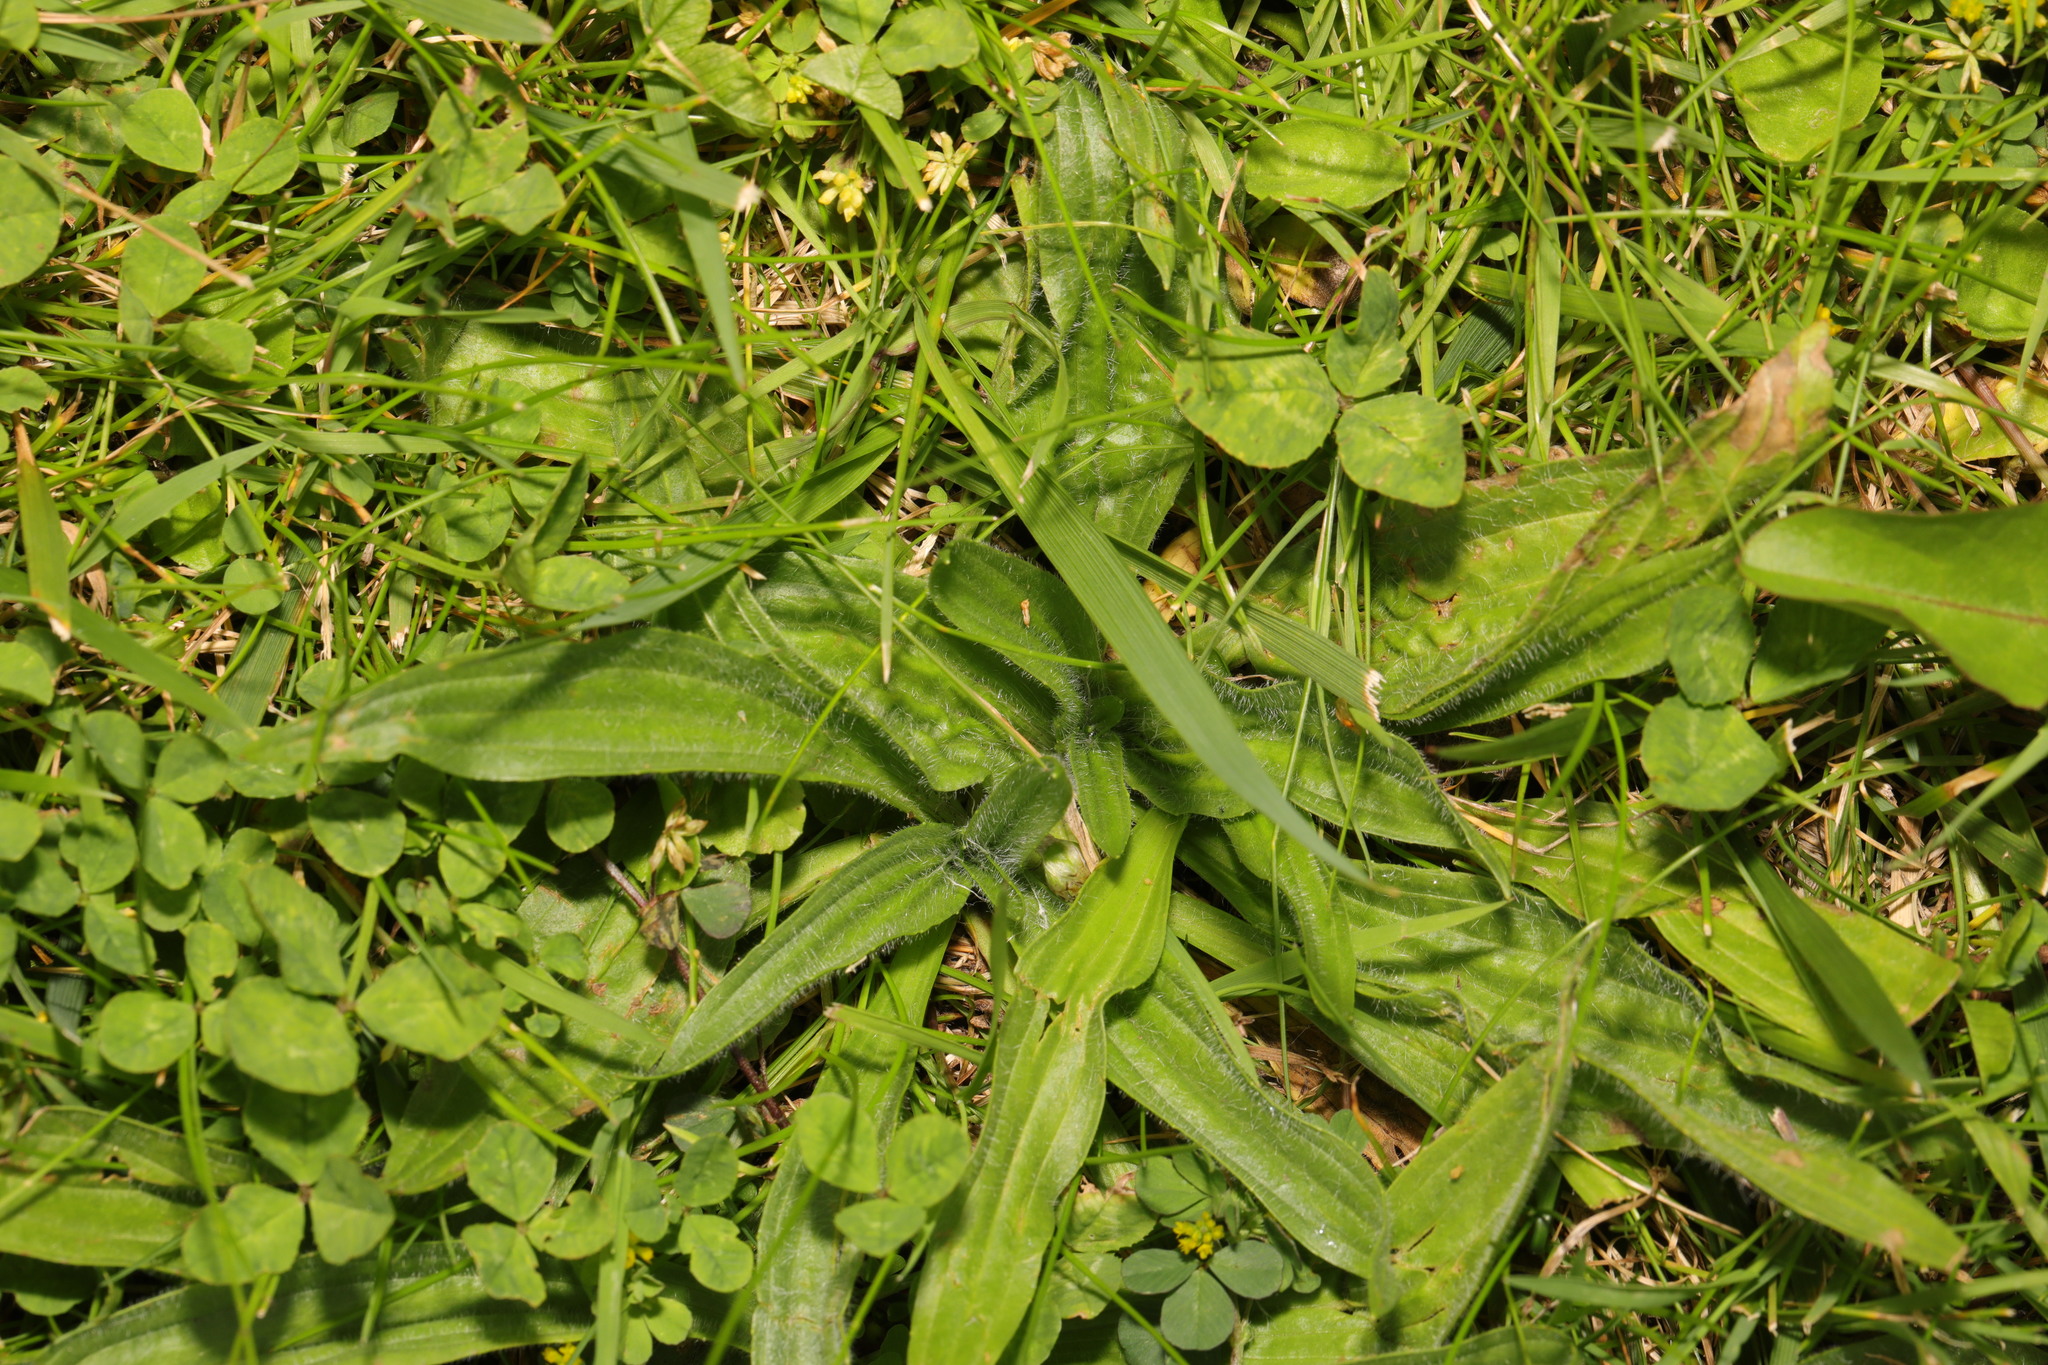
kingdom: Plantae
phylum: Tracheophyta
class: Magnoliopsida
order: Lamiales
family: Plantaginaceae
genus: Plantago
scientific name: Plantago lanceolata
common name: Ribwort plantain
